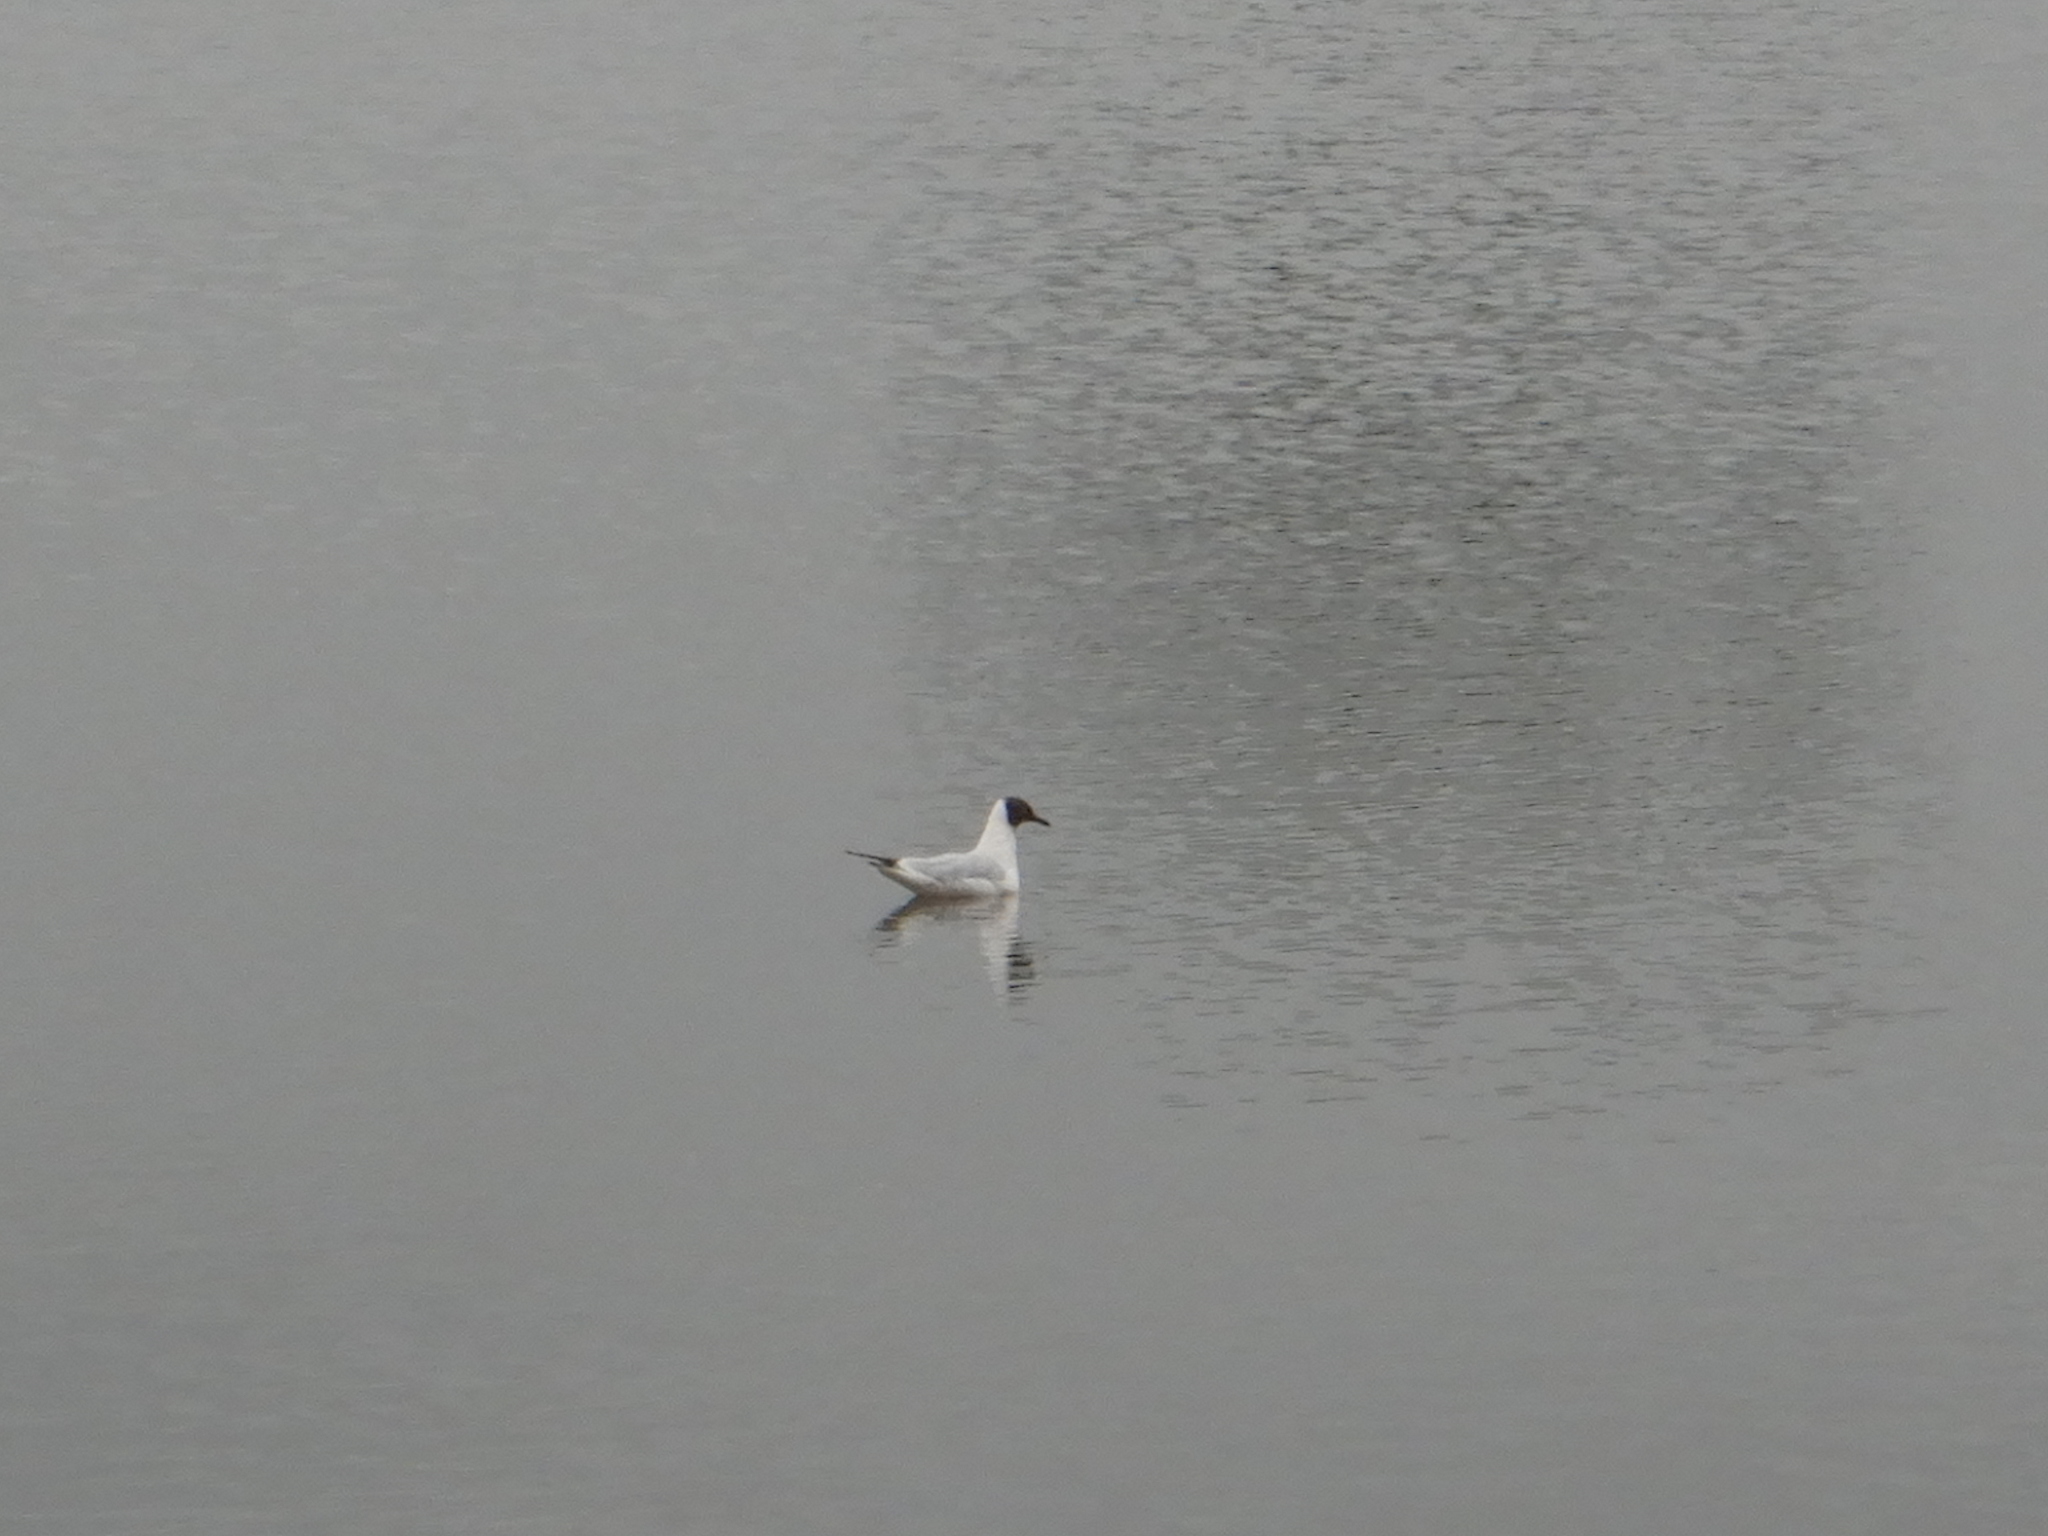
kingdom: Animalia
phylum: Chordata
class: Aves
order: Charadriiformes
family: Laridae
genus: Chroicocephalus
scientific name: Chroicocephalus ridibundus
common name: Black-headed gull
